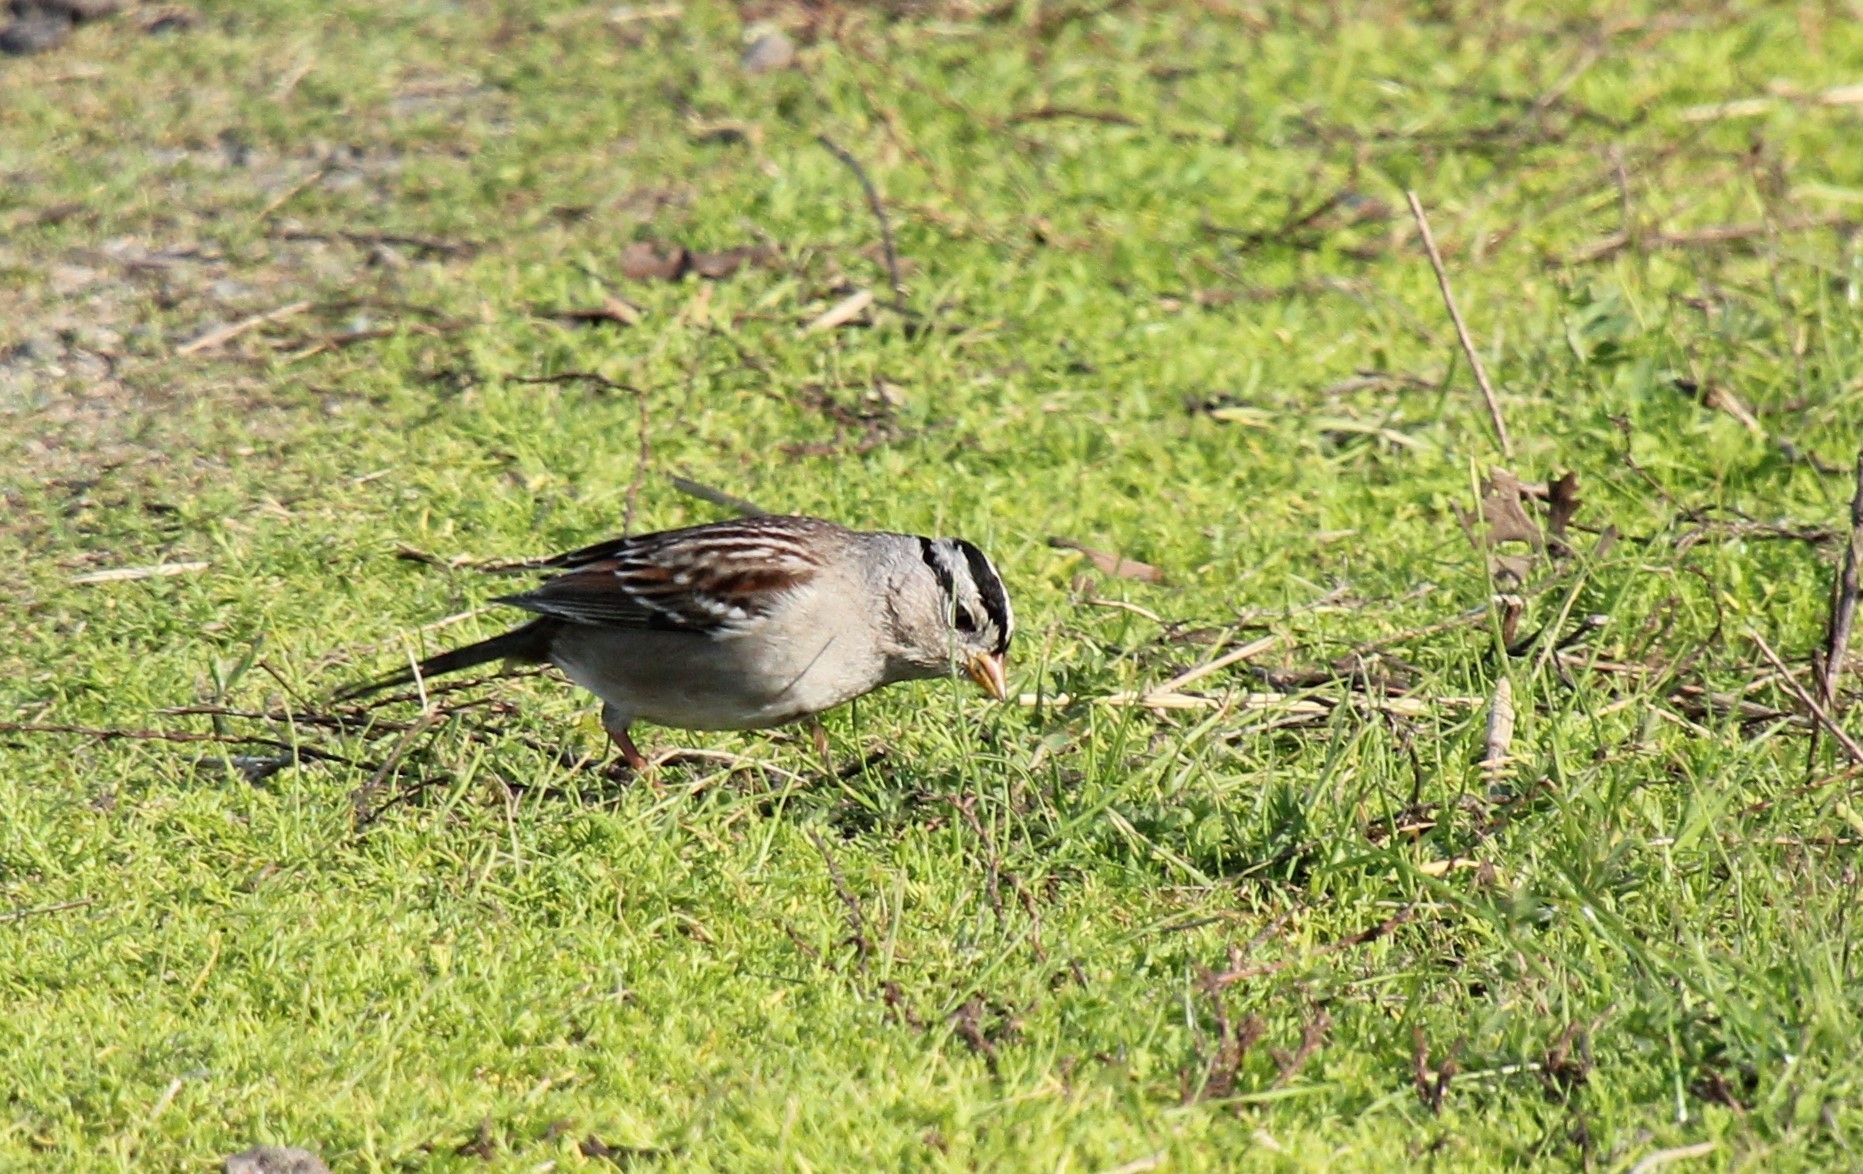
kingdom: Animalia
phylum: Chordata
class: Aves
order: Passeriformes
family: Passerellidae
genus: Zonotrichia
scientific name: Zonotrichia leucophrys
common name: White-crowned sparrow
